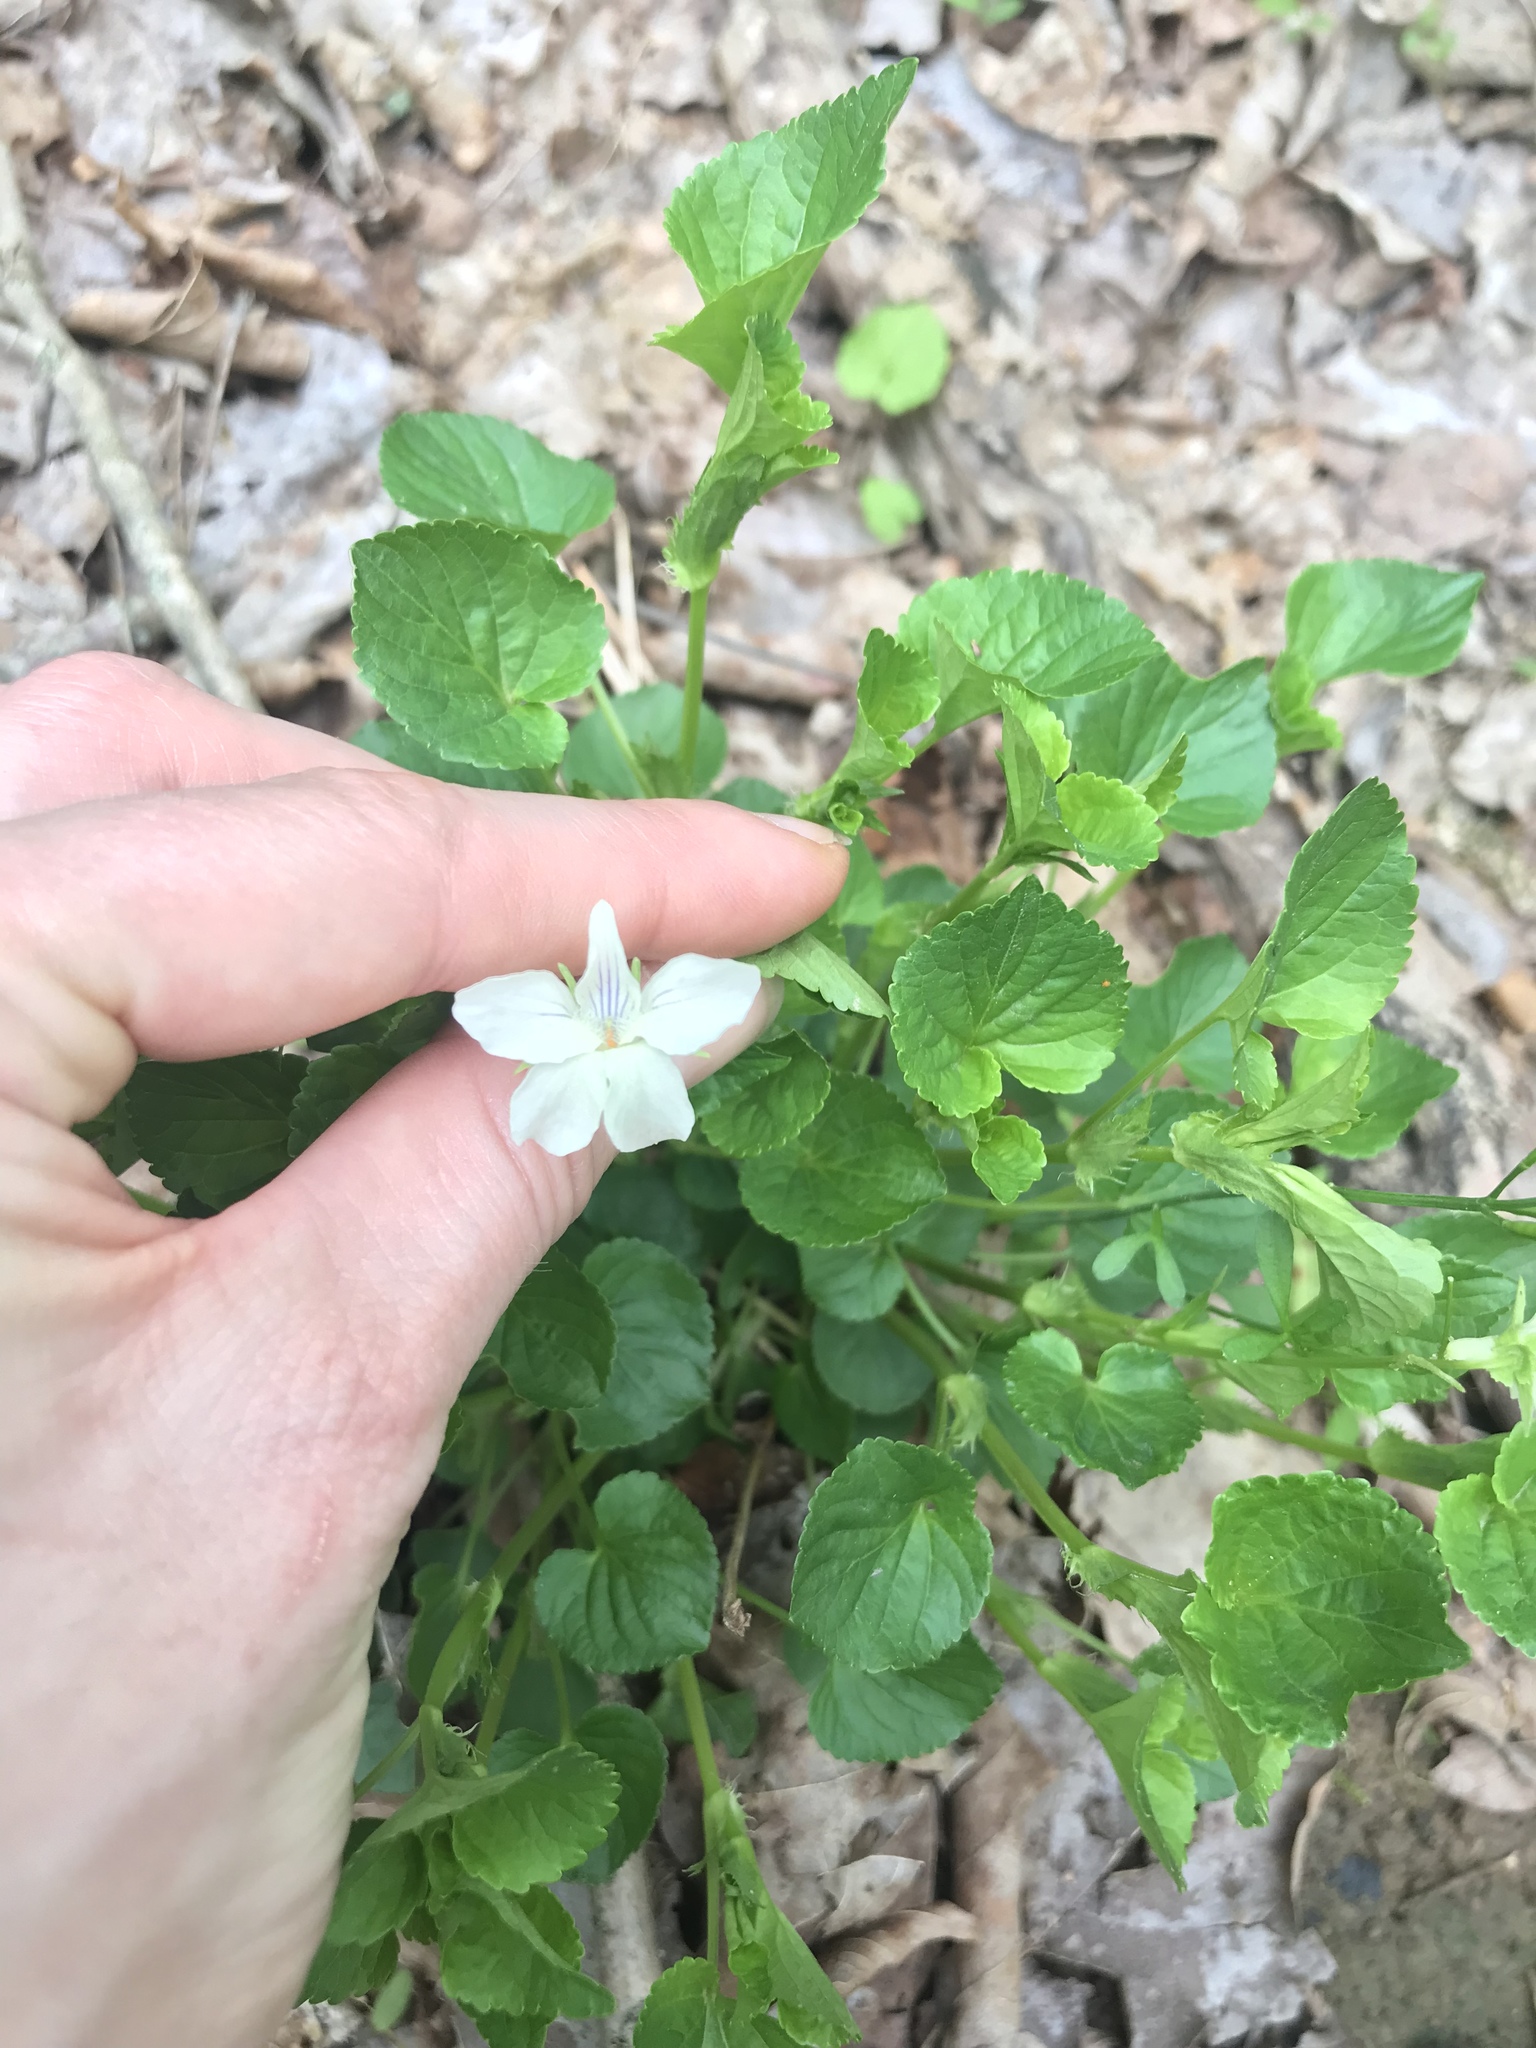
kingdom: Plantae
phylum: Tracheophyta
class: Magnoliopsida
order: Malpighiales
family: Violaceae
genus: Viola
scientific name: Viola striata
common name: Cream violet
